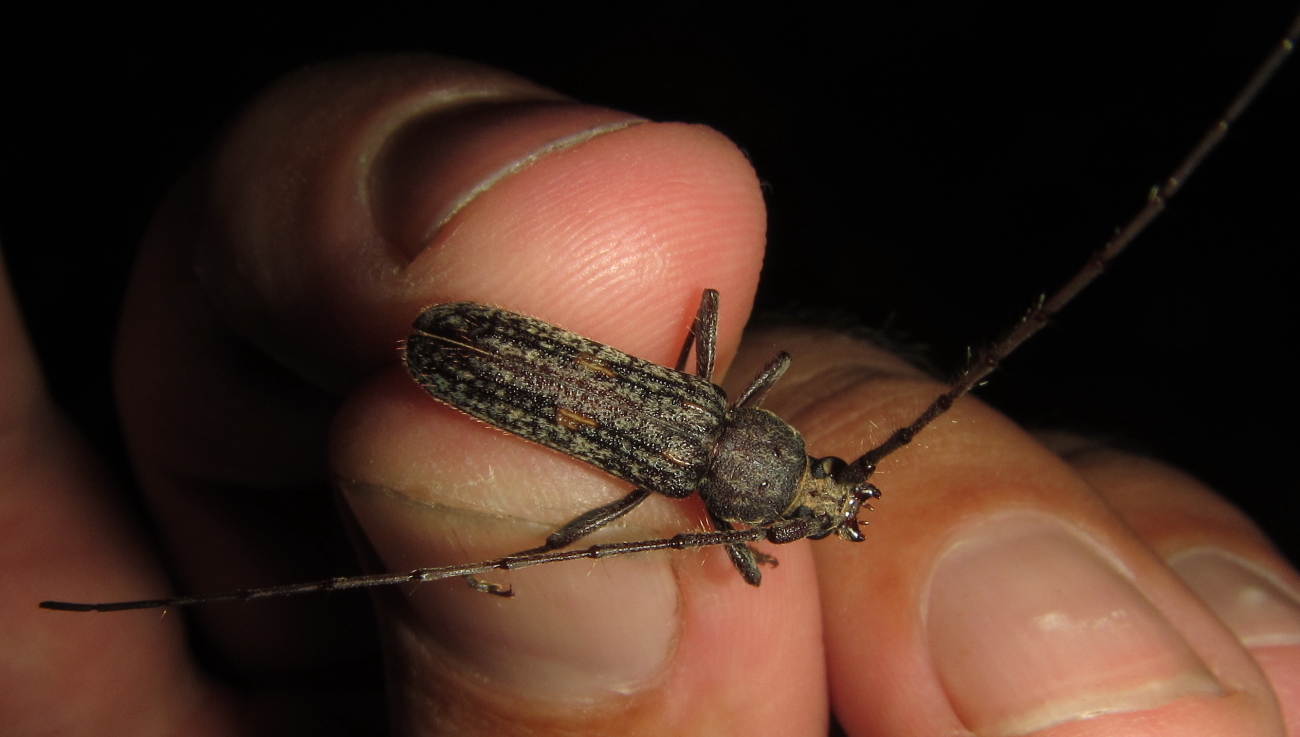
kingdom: Animalia
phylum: Arthropoda
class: Insecta
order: Coleoptera
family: Cerambycidae
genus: Zoodes
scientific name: Zoodes liturifer
